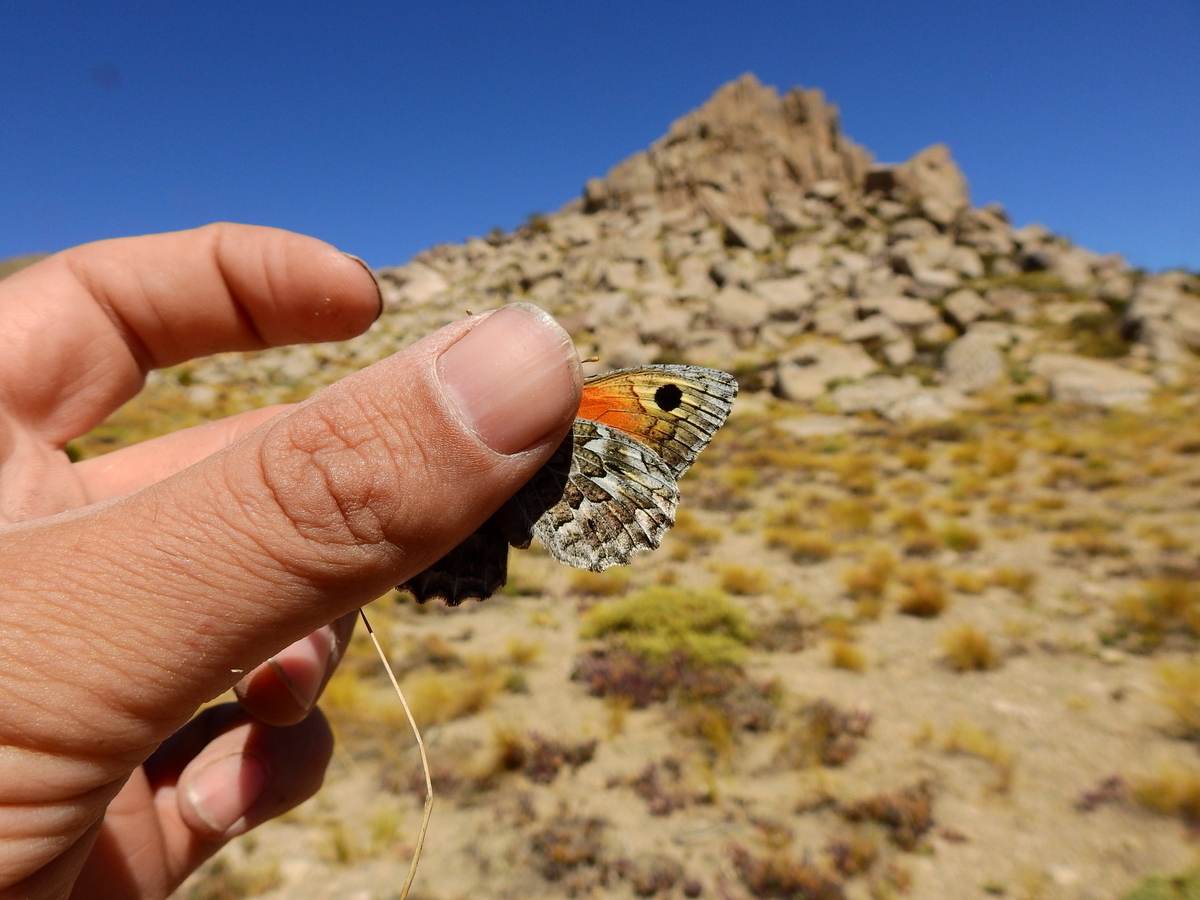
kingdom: Animalia
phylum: Arthropoda
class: Insecta
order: Lepidoptera
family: Nymphalidae
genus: Argyrophorus
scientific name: Argyrophorus
